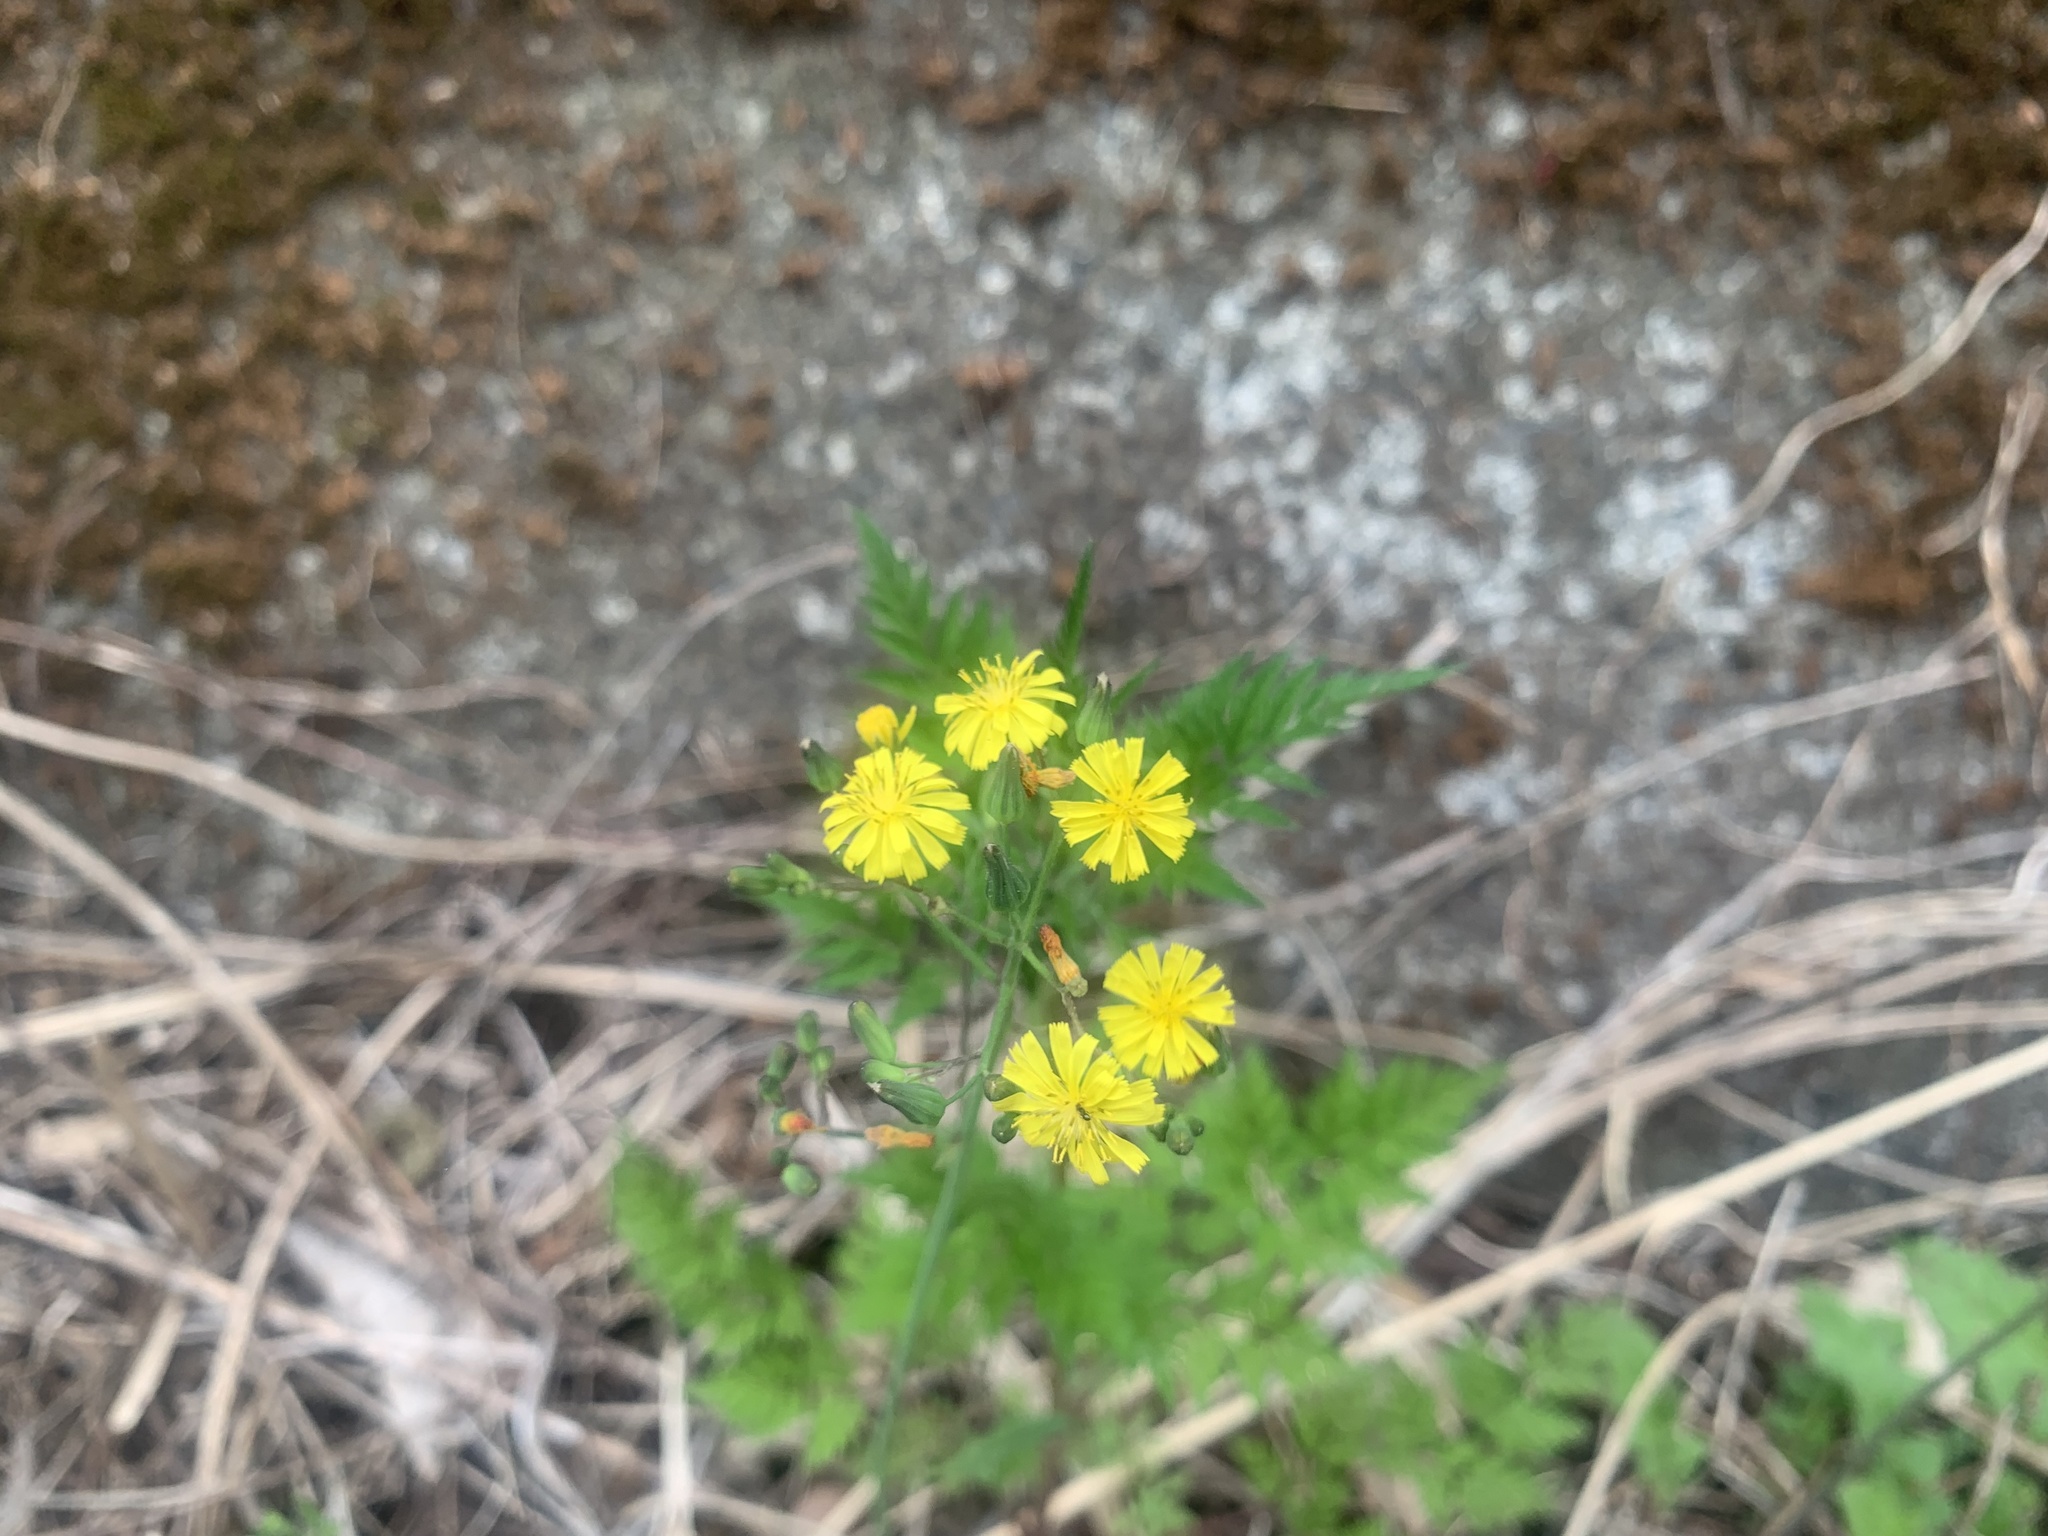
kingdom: Plantae
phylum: Tracheophyta
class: Magnoliopsida
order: Asterales
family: Asteraceae
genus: Youngia
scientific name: Youngia japonica
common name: Oriental false hawksbeard
